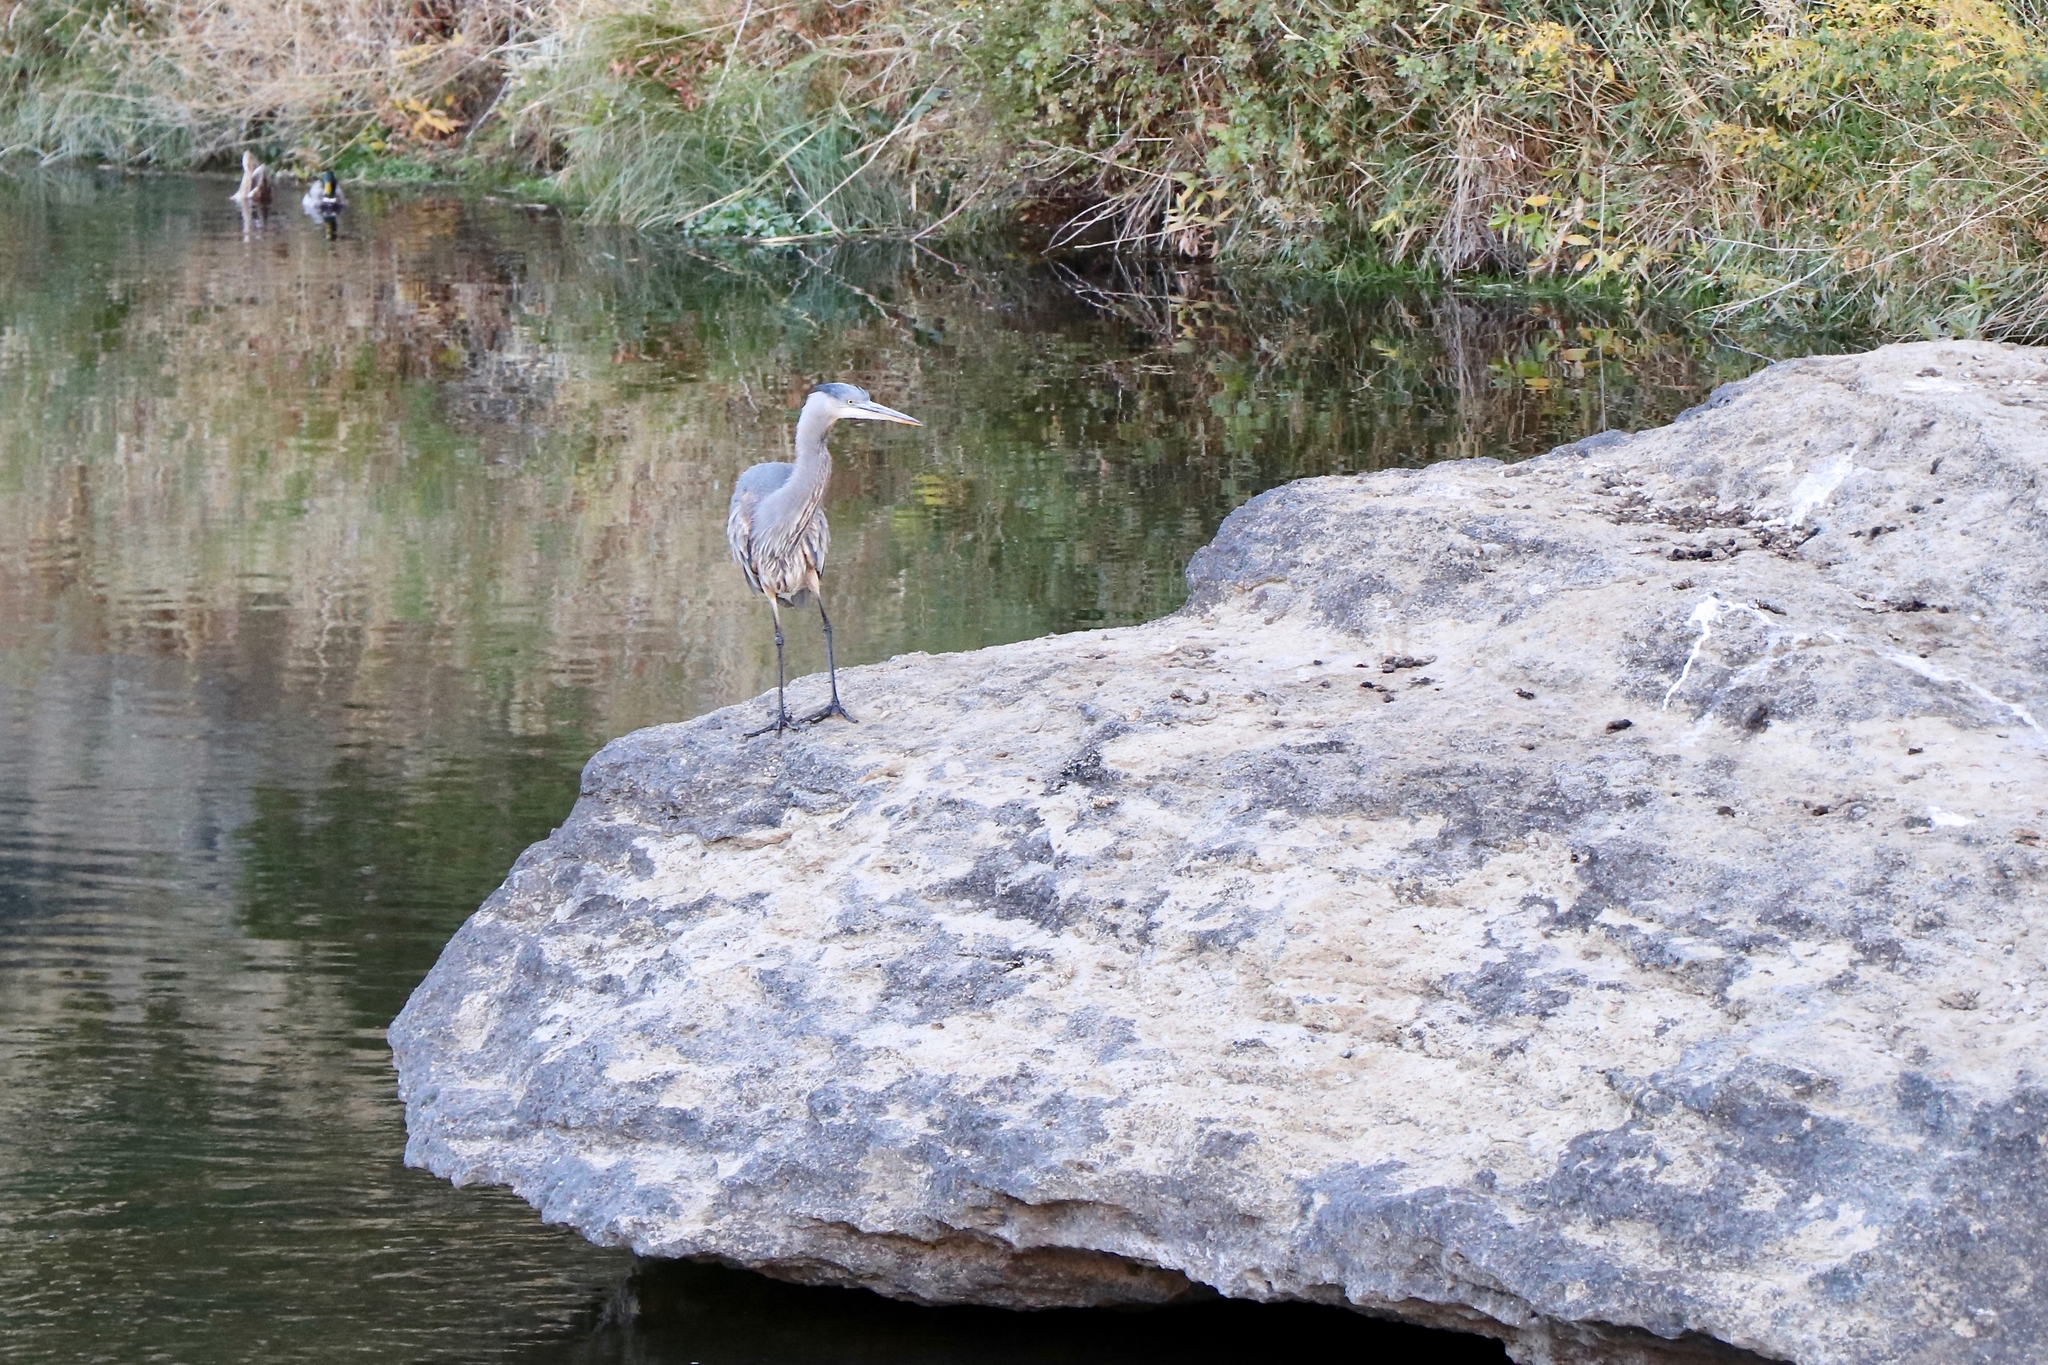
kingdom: Animalia
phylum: Chordata
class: Aves
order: Pelecaniformes
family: Ardeidae
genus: Ardea
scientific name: Ardea herodias
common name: Great blue heron
